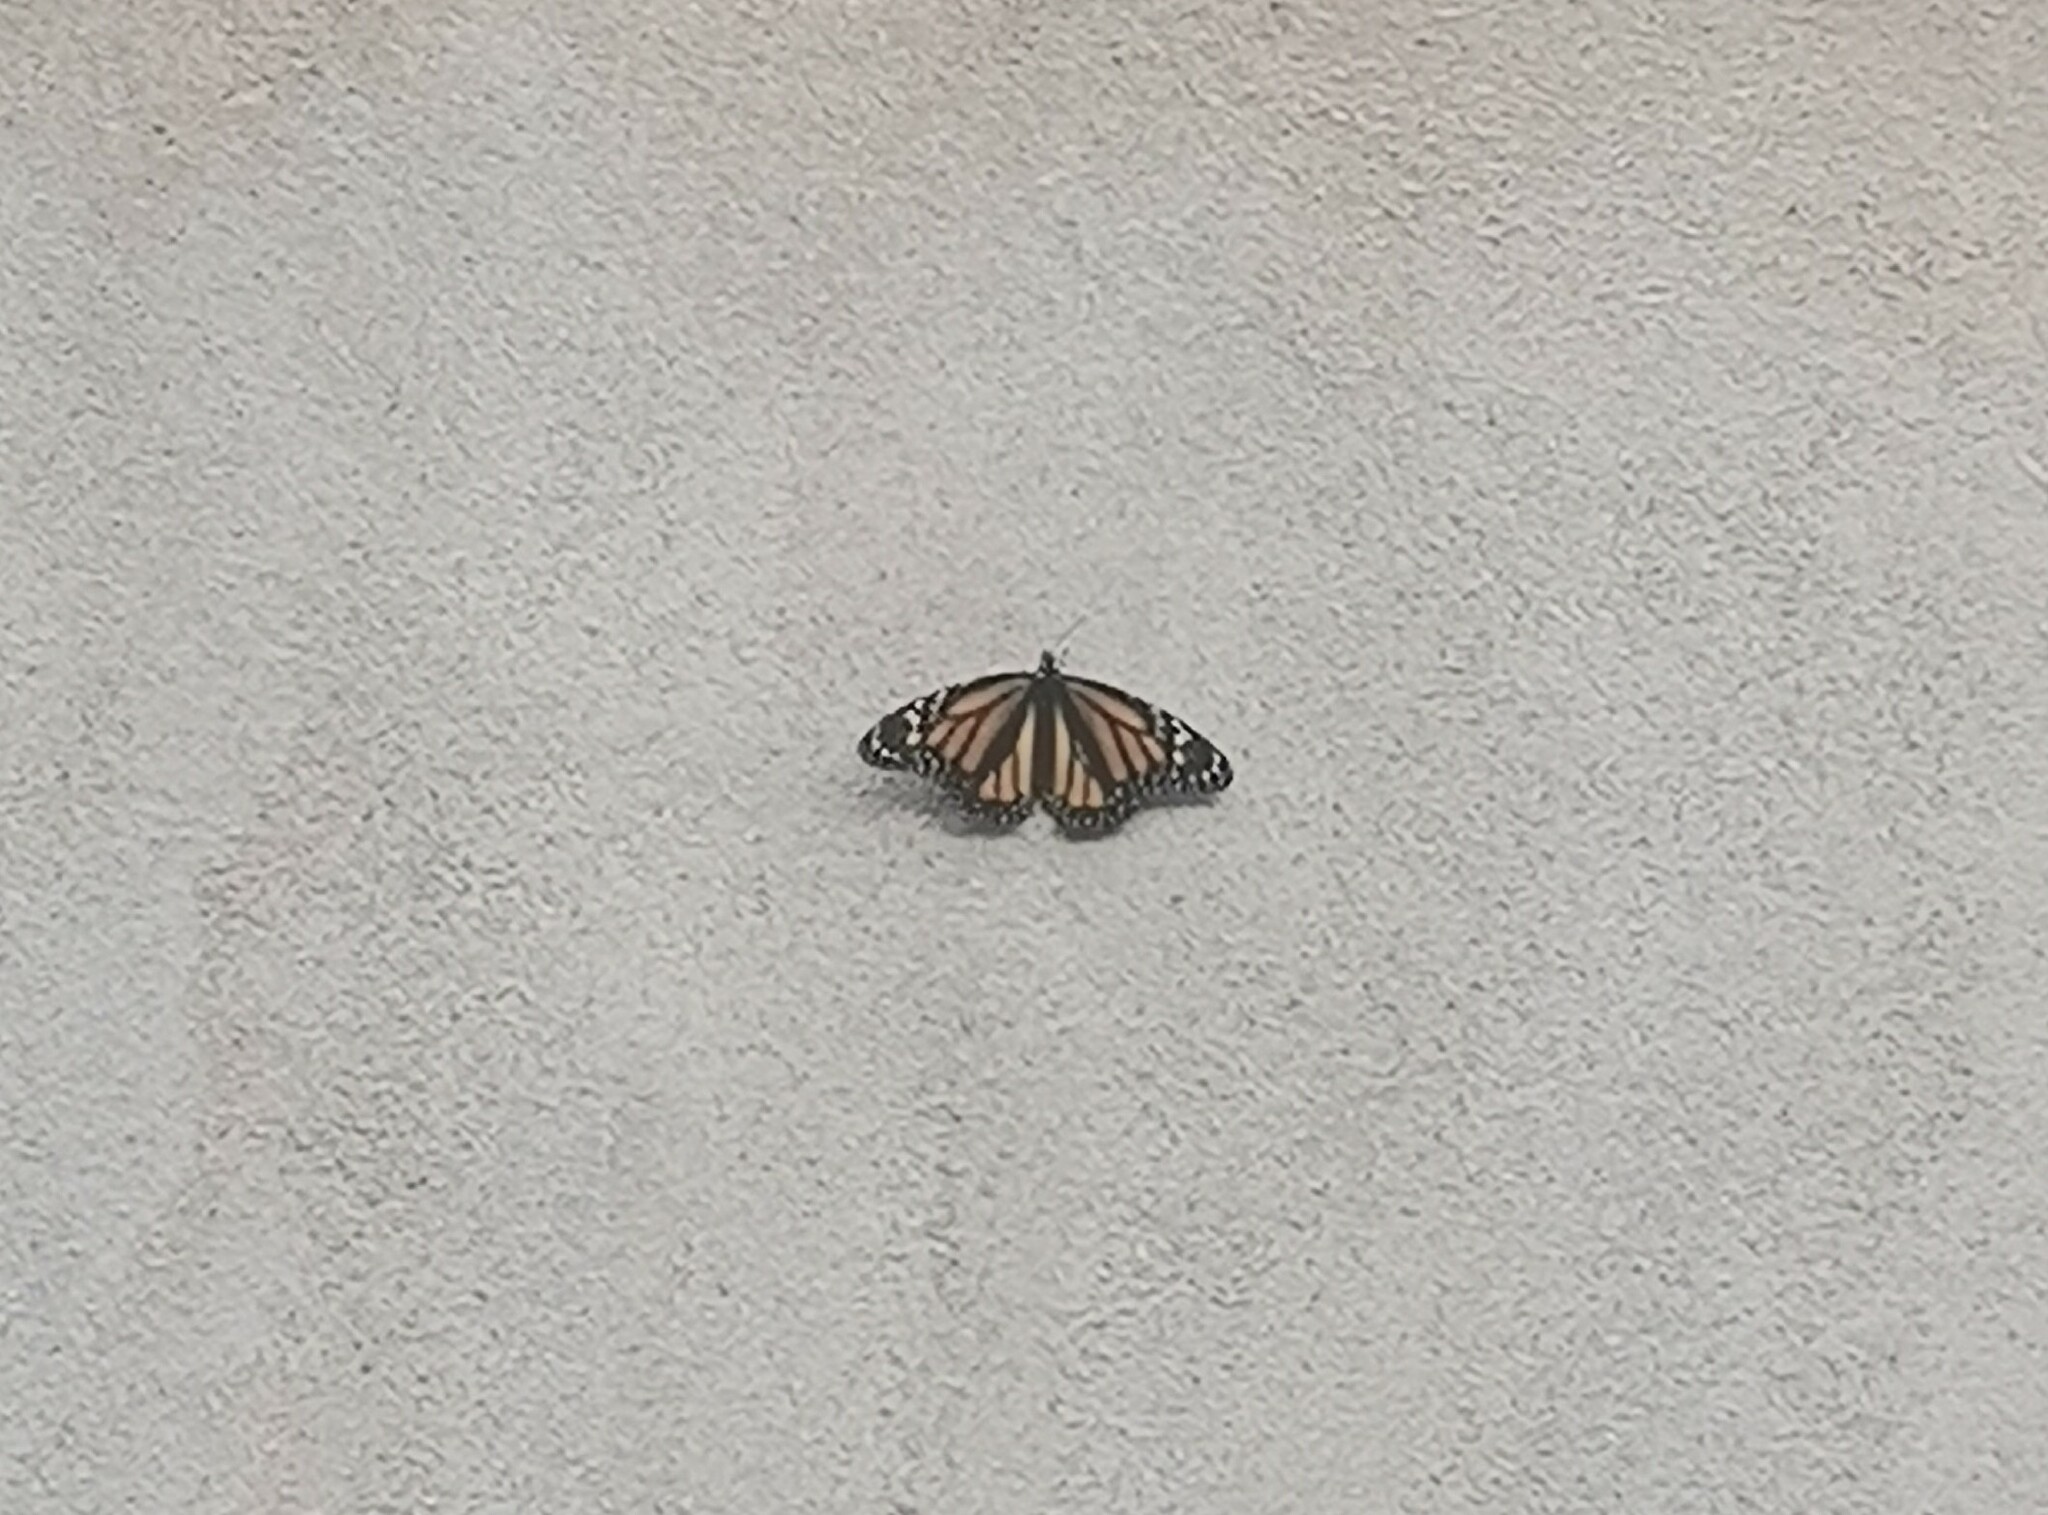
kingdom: Animalia
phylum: Arthropoda
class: Insecta
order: Lepidoptera
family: Nymphalidae
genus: Danaus
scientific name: Danaus plexippus
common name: Monarch
